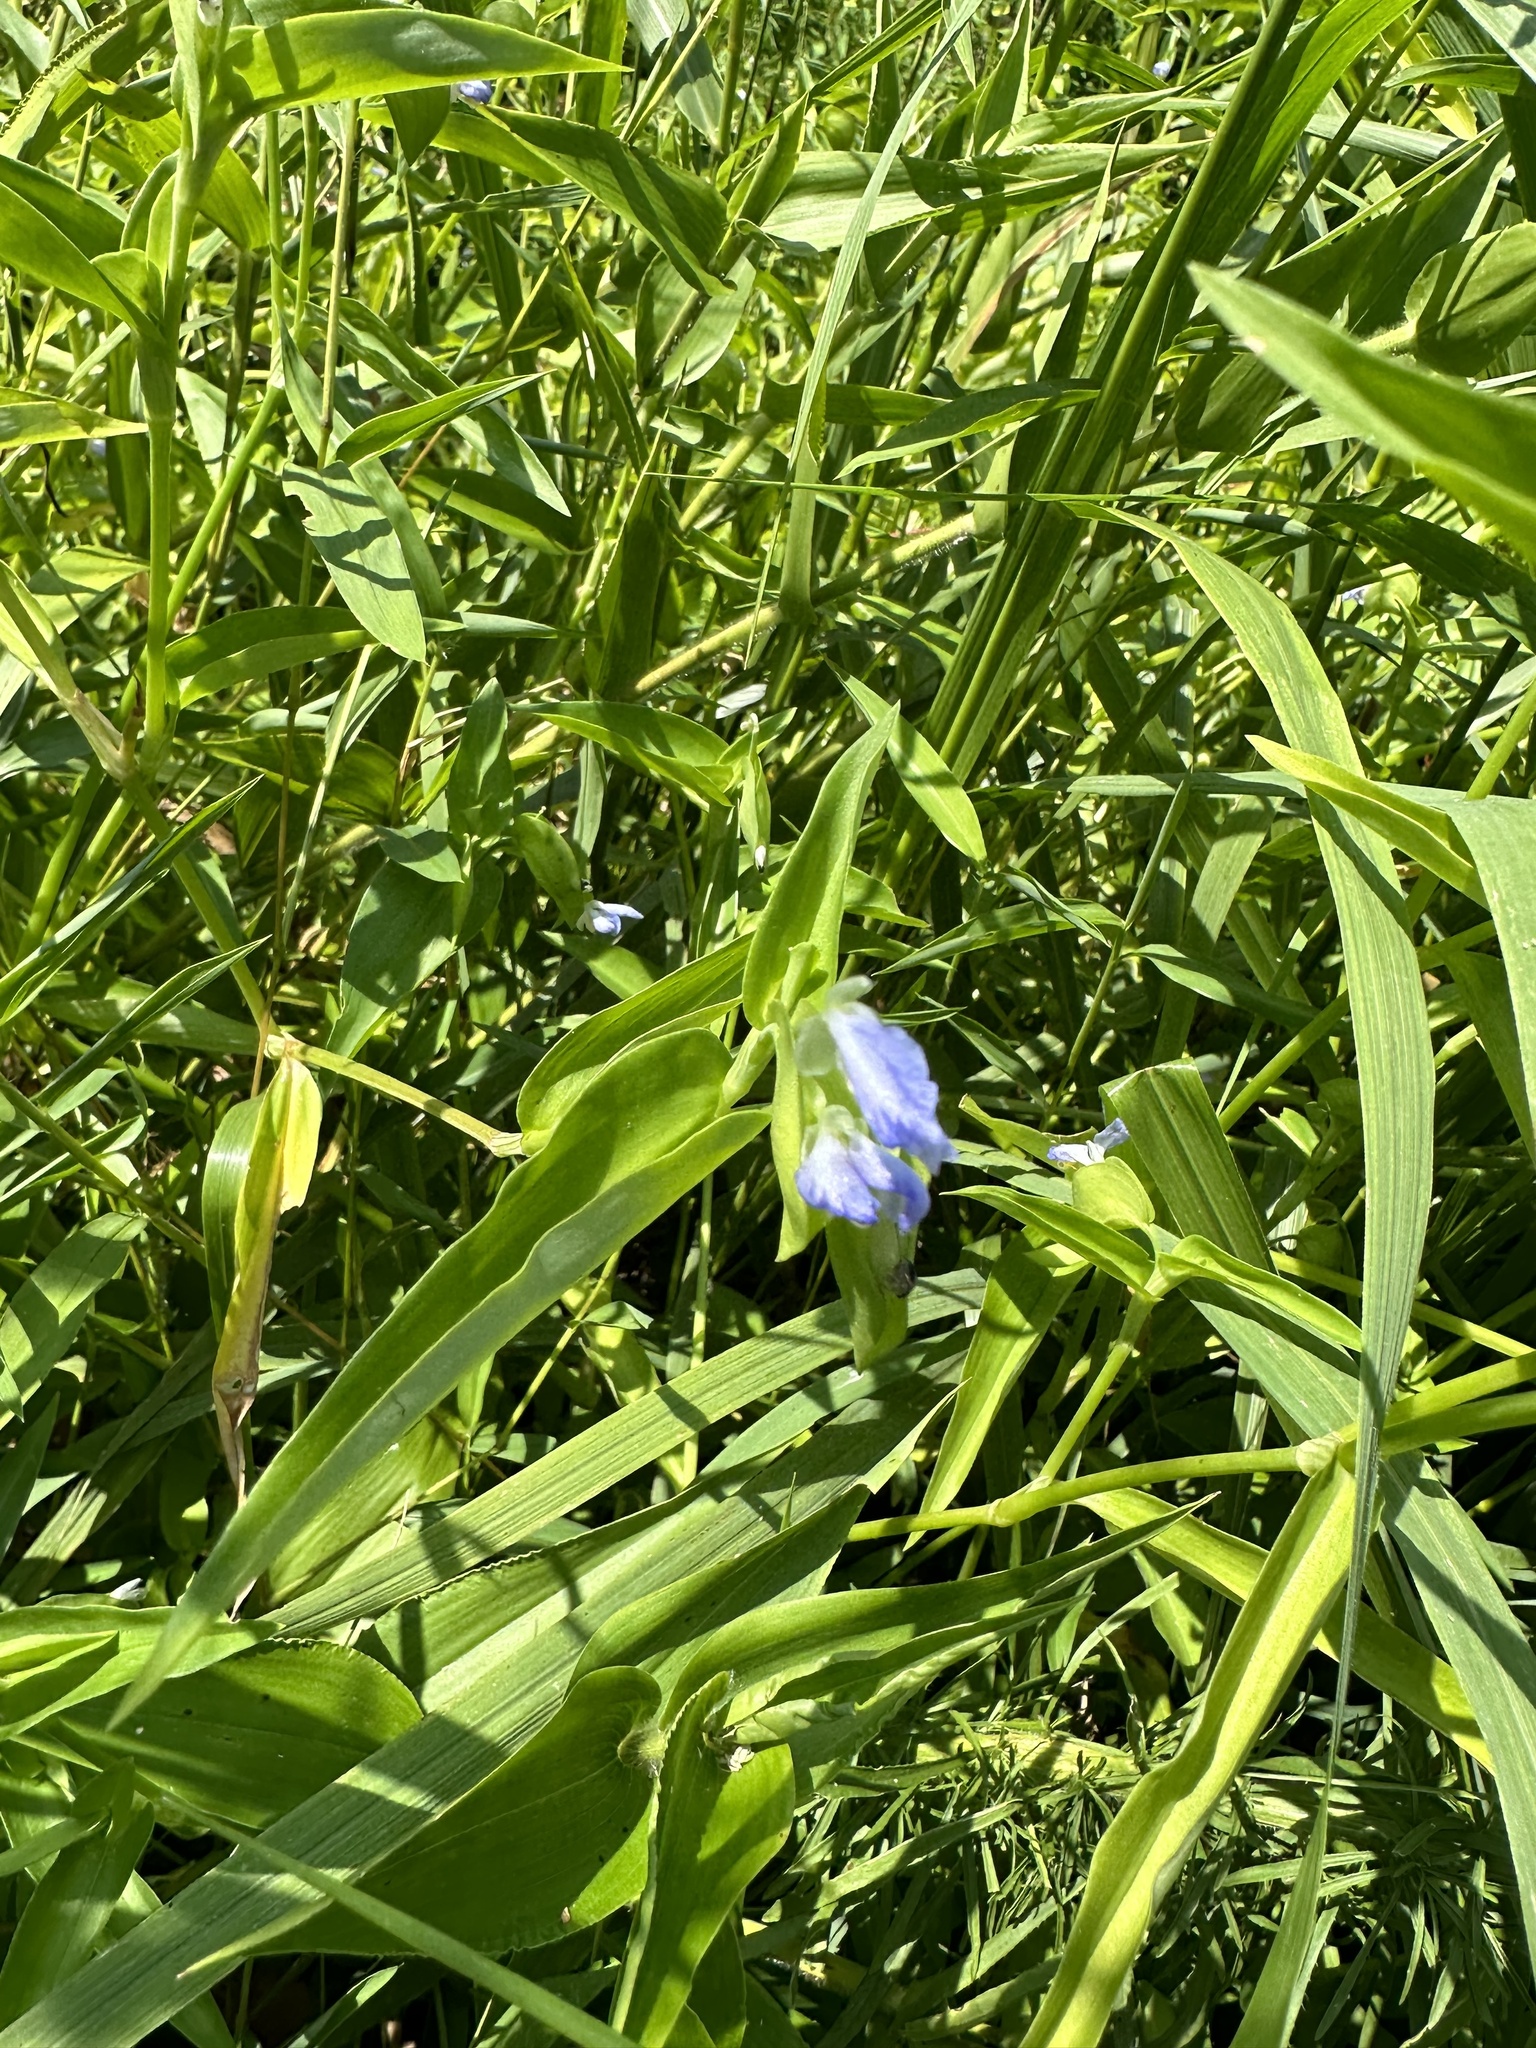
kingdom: Plantae
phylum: Tracheophyta
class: Liliopsida
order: Commelinales
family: Commelinaceae
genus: Commelina
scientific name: Commelina communis
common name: Asiatic dayflower
